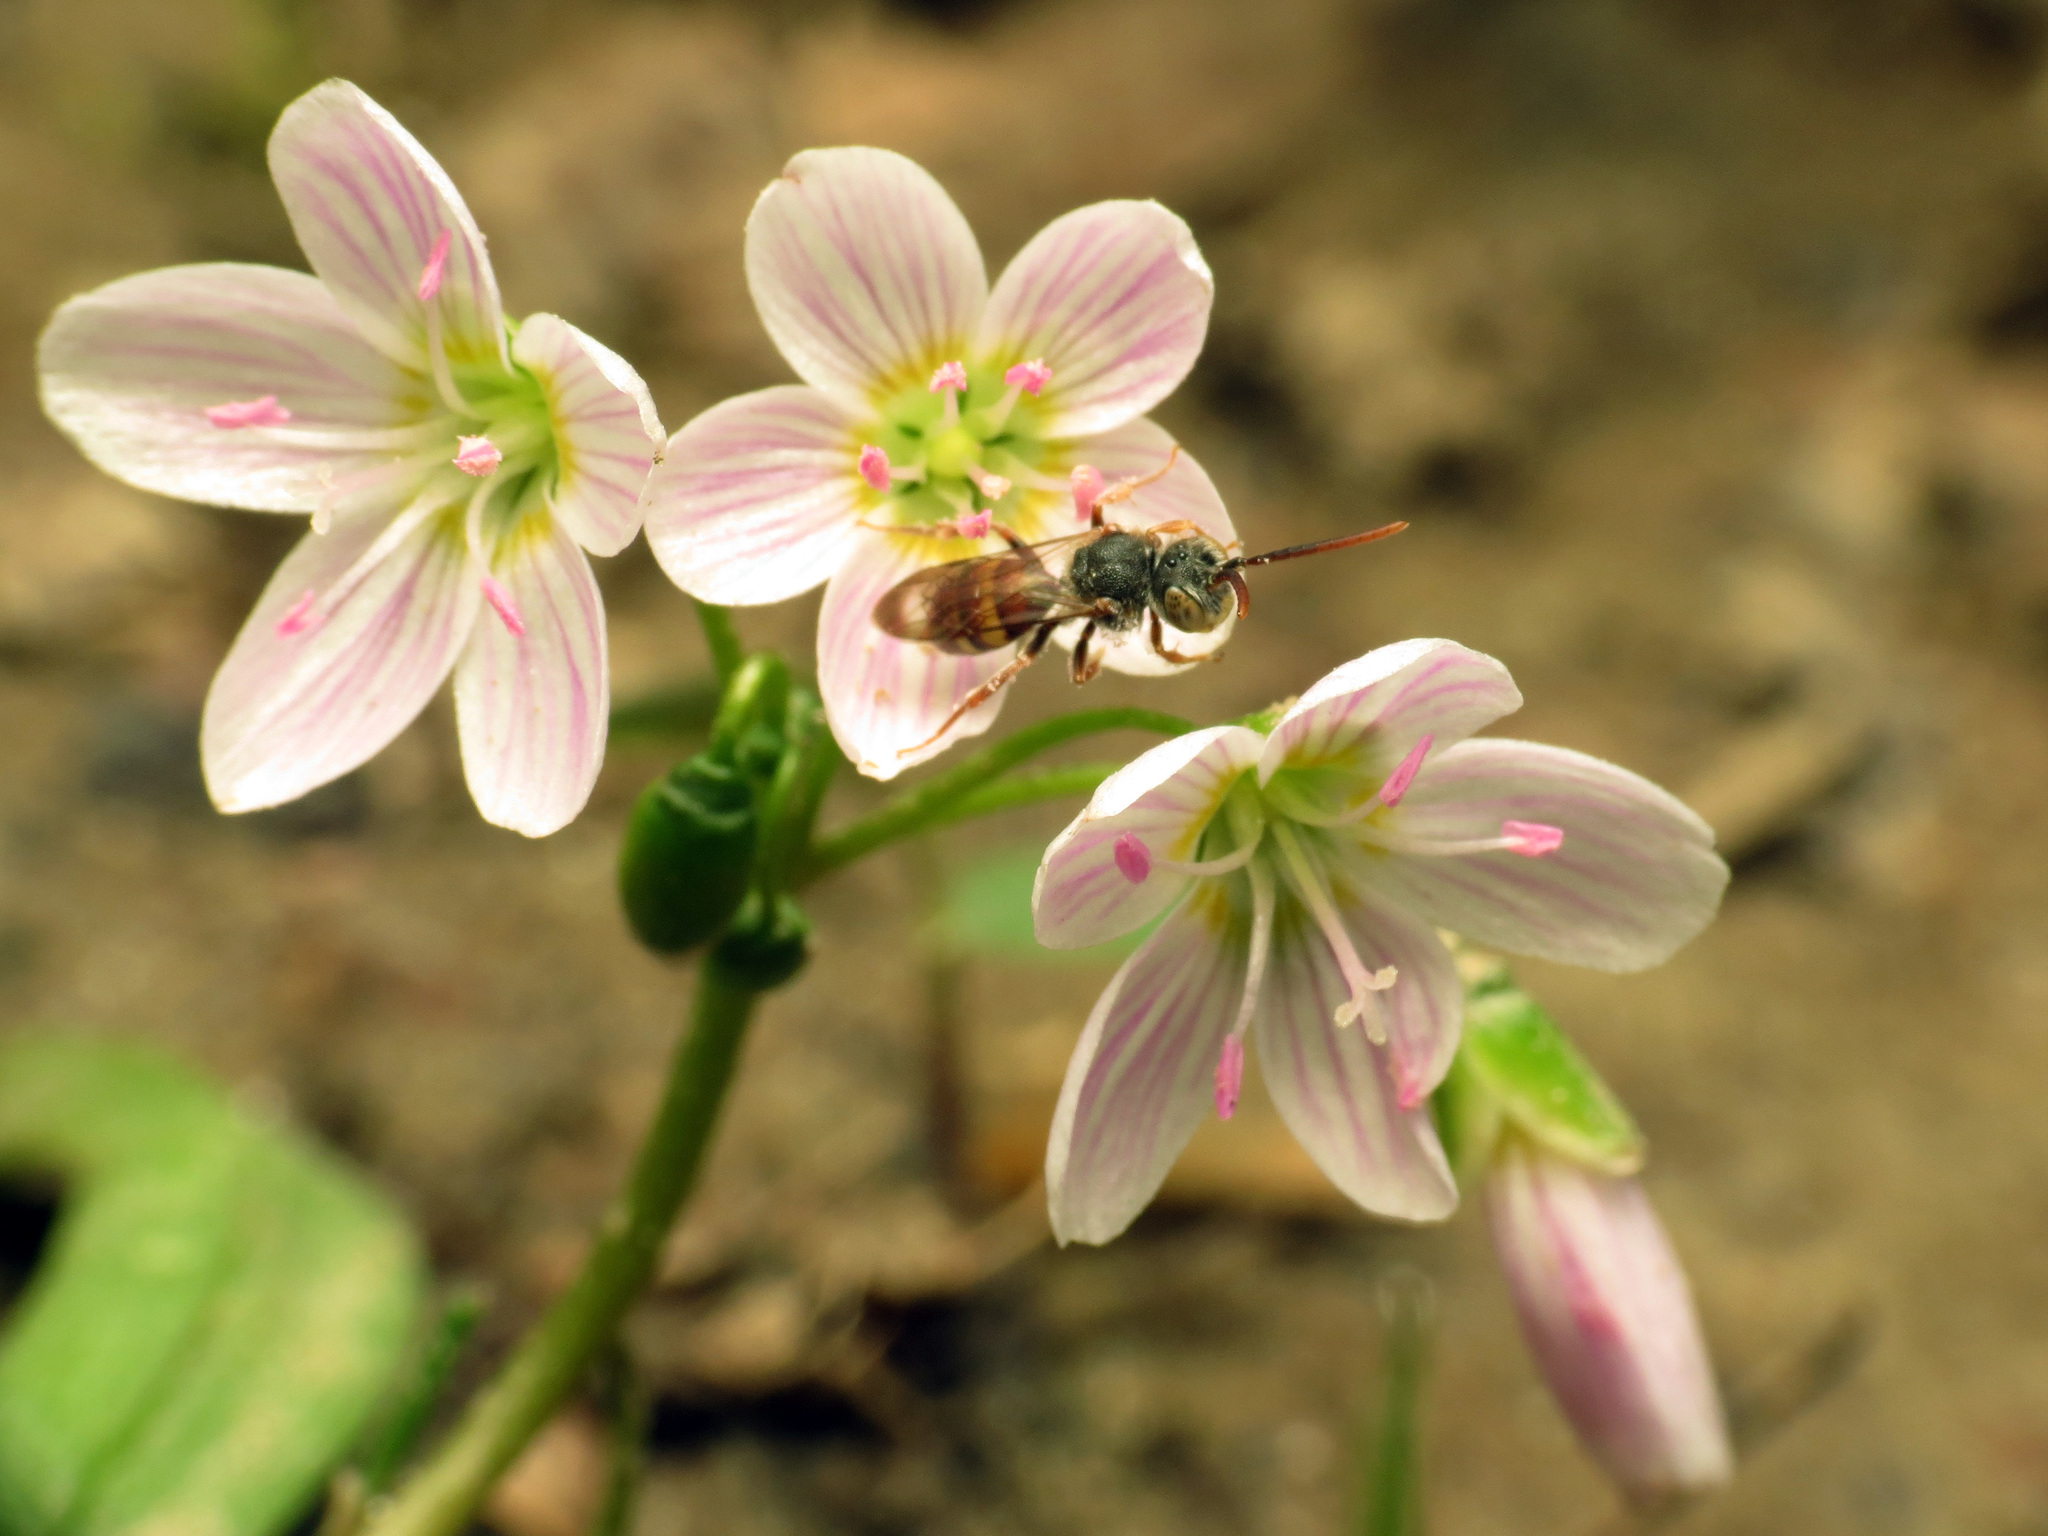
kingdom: Plantae
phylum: Tracheophyta
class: Magnoliopsida
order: Caryophyllales
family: Montiaceae
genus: Claytonia
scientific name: Claytonia virginica
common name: Virginia springbeauty
